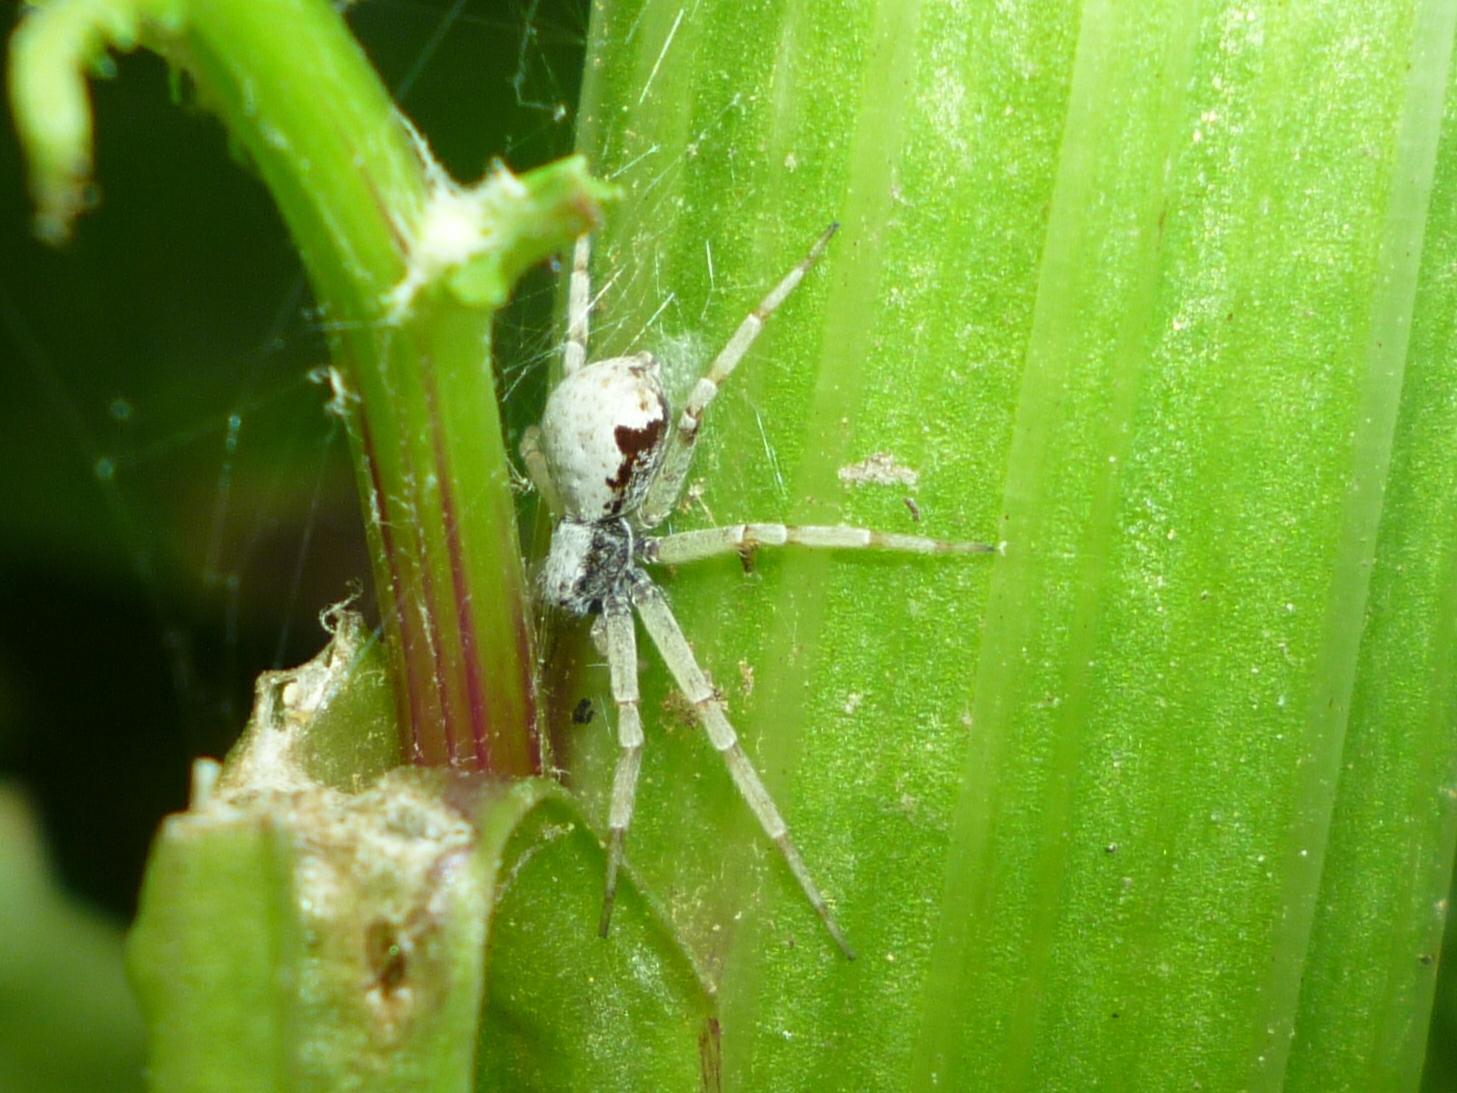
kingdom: Animalia
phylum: Arthropoda
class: Arachnida
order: Araneae
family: Philodromidae
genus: Philodromus
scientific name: Philodromus marxi
